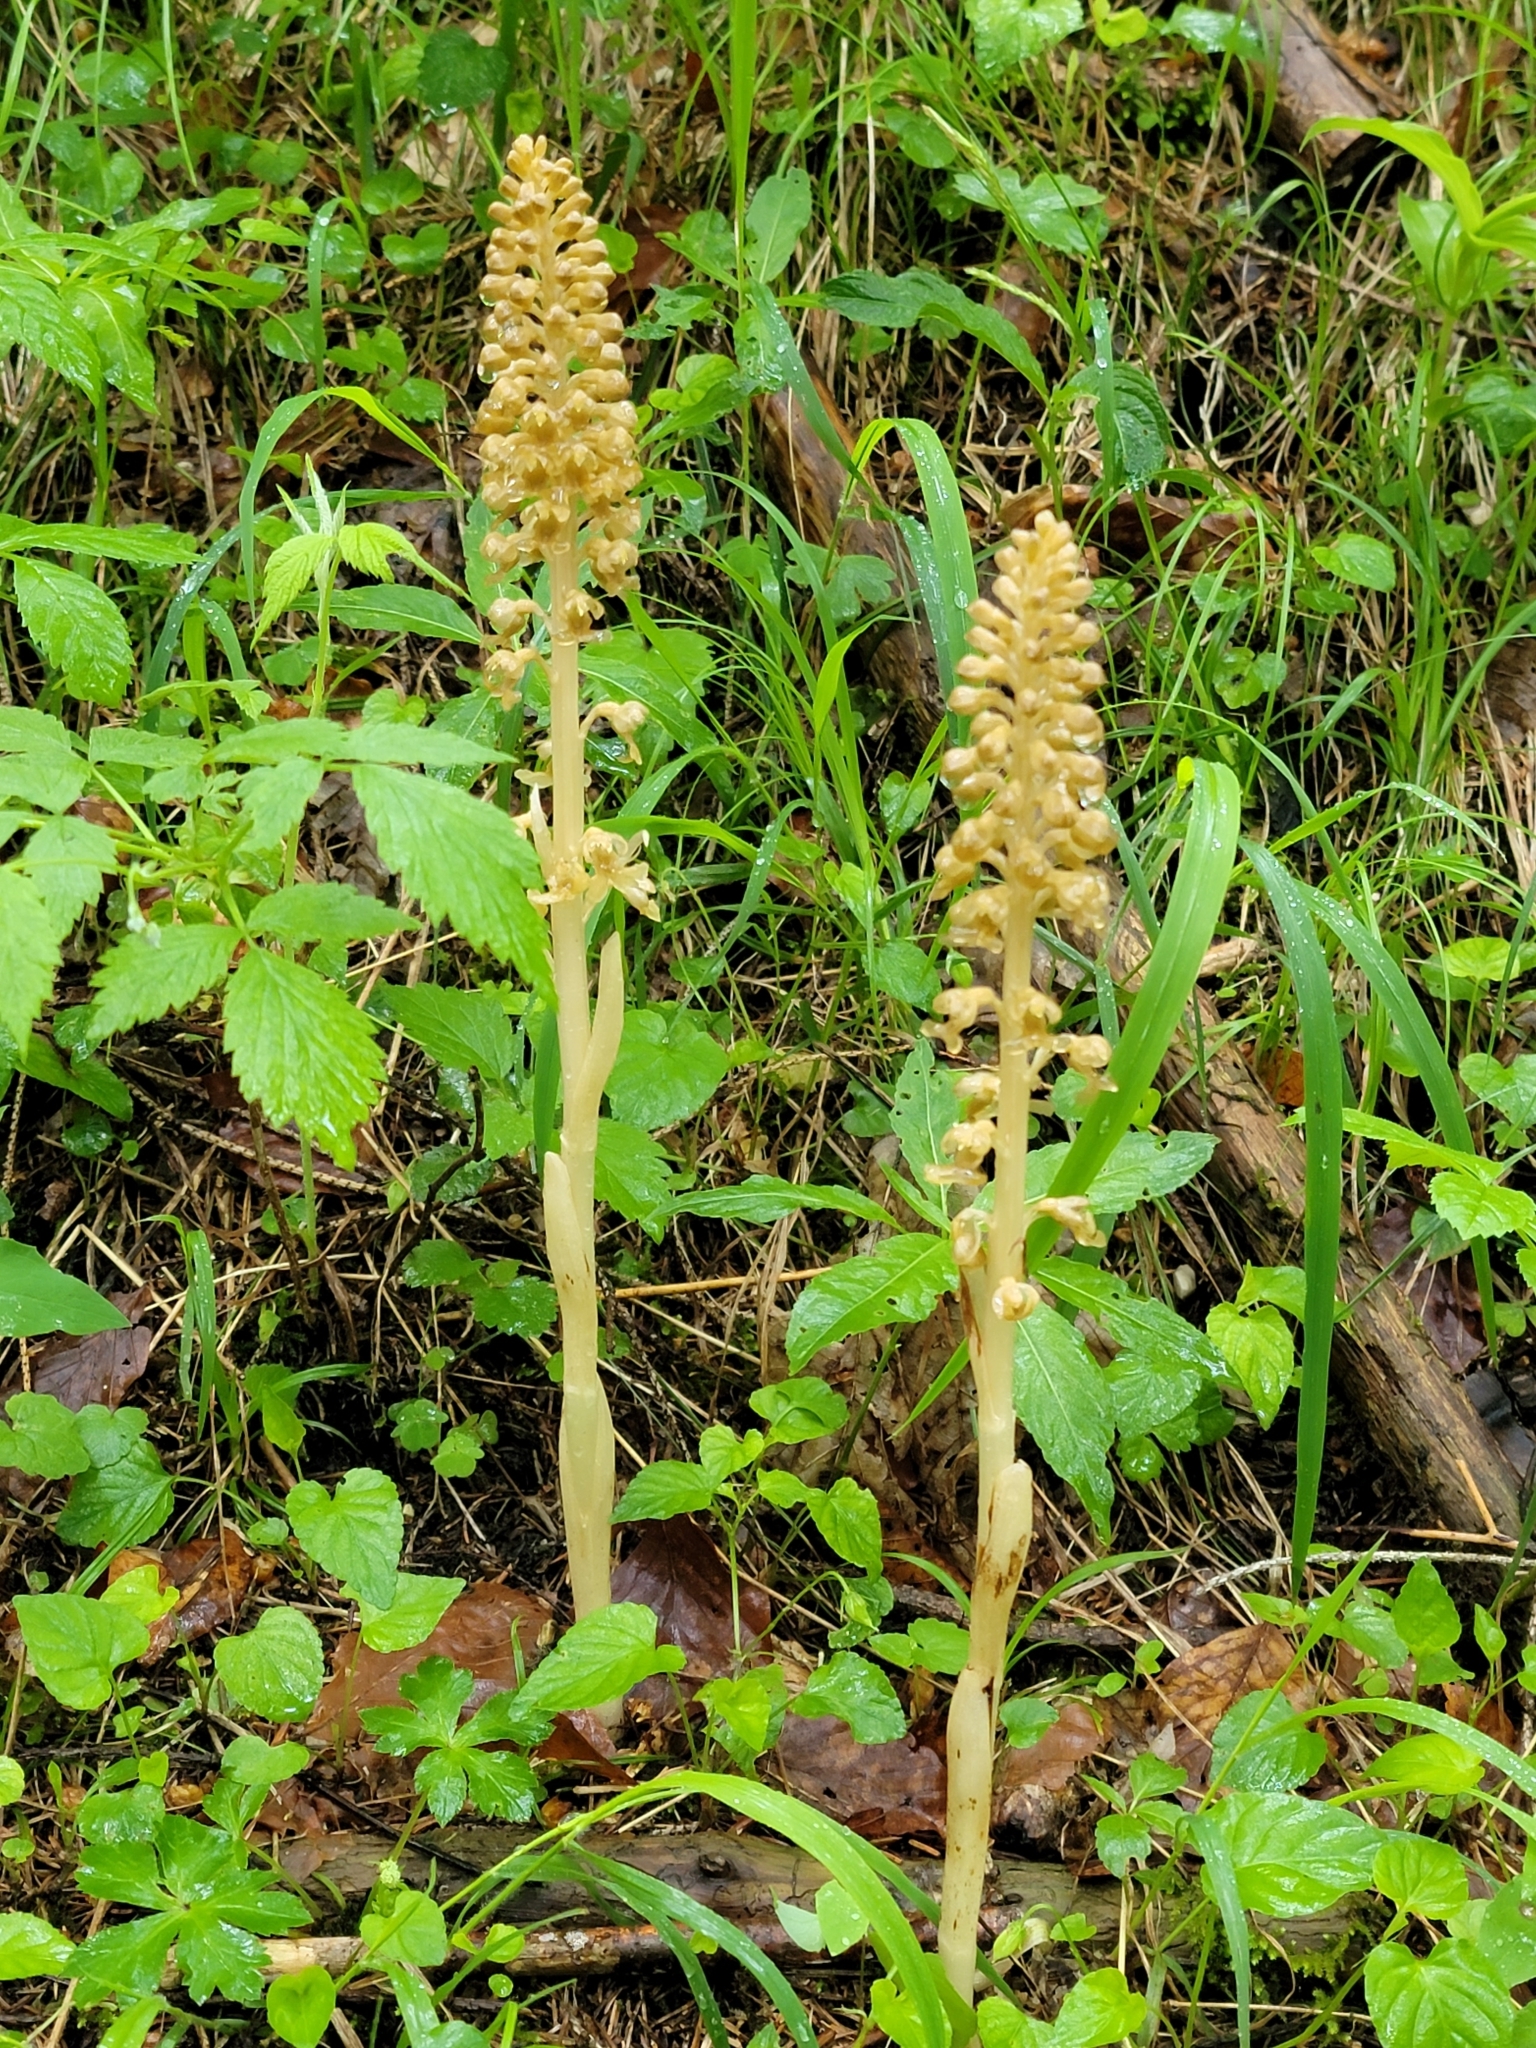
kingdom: Plantae
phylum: Tracheophyta
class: Liliopsida
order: Asparagales
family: Orchidaceae
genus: Neottia
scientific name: Neottia nidus-avis
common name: Bird's-nest orchid
